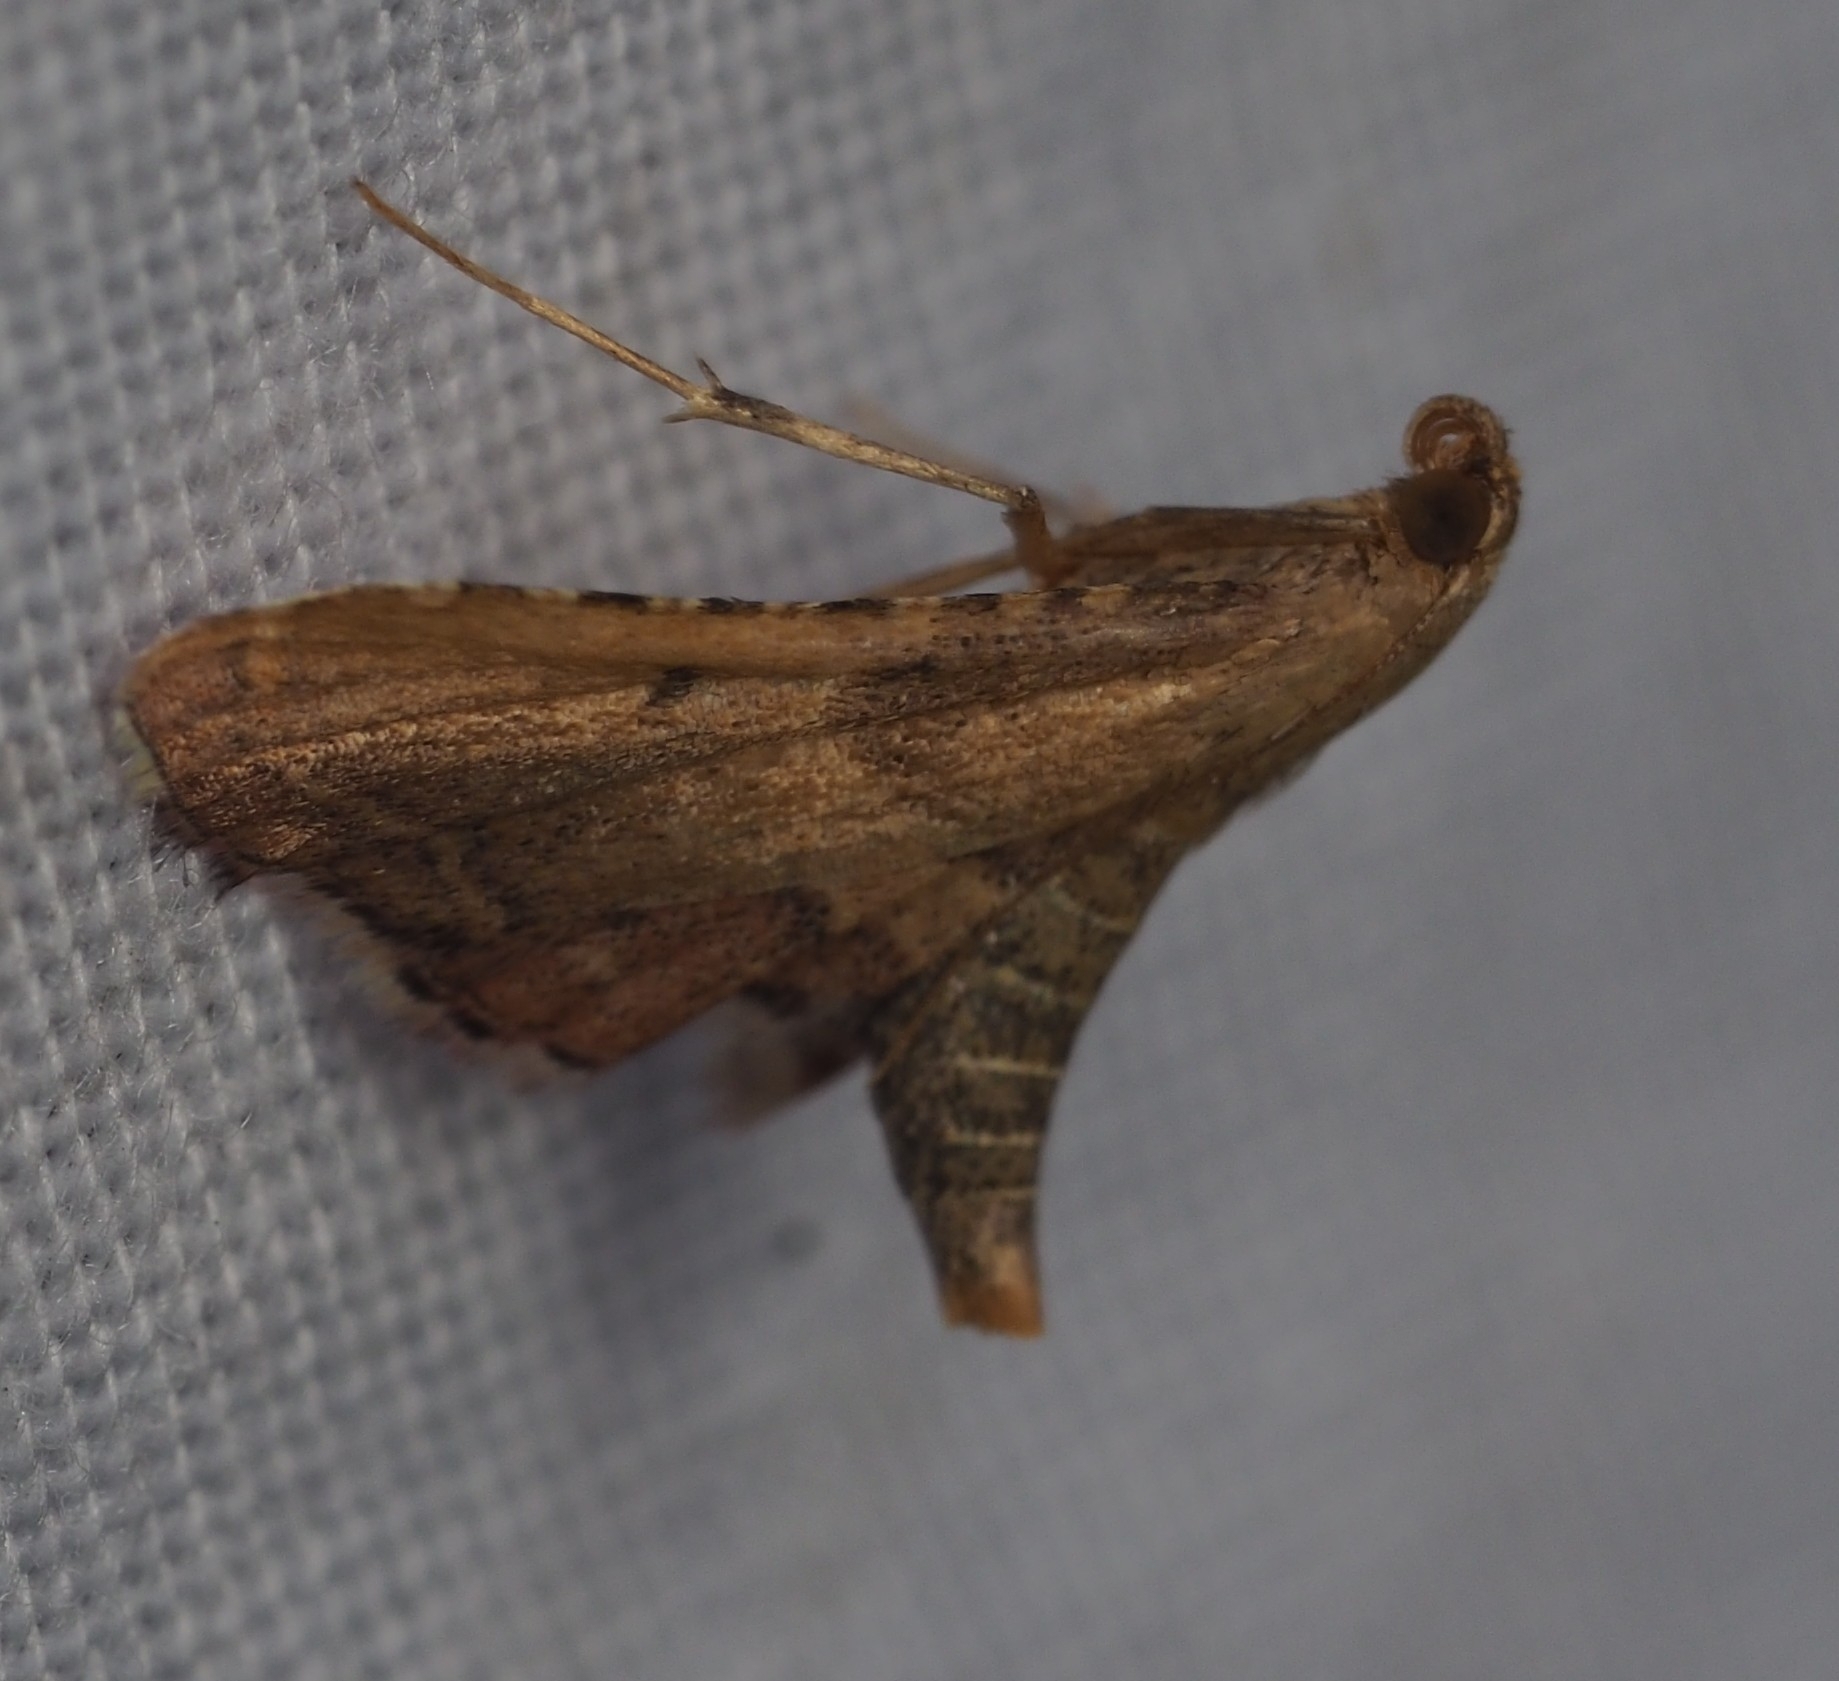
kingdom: Animalia
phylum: Arthropoda
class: Insecta
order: Lepidoptera
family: Pyralidae
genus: Endotricha
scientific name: Endotricha flammealis
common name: Rosy tabby
